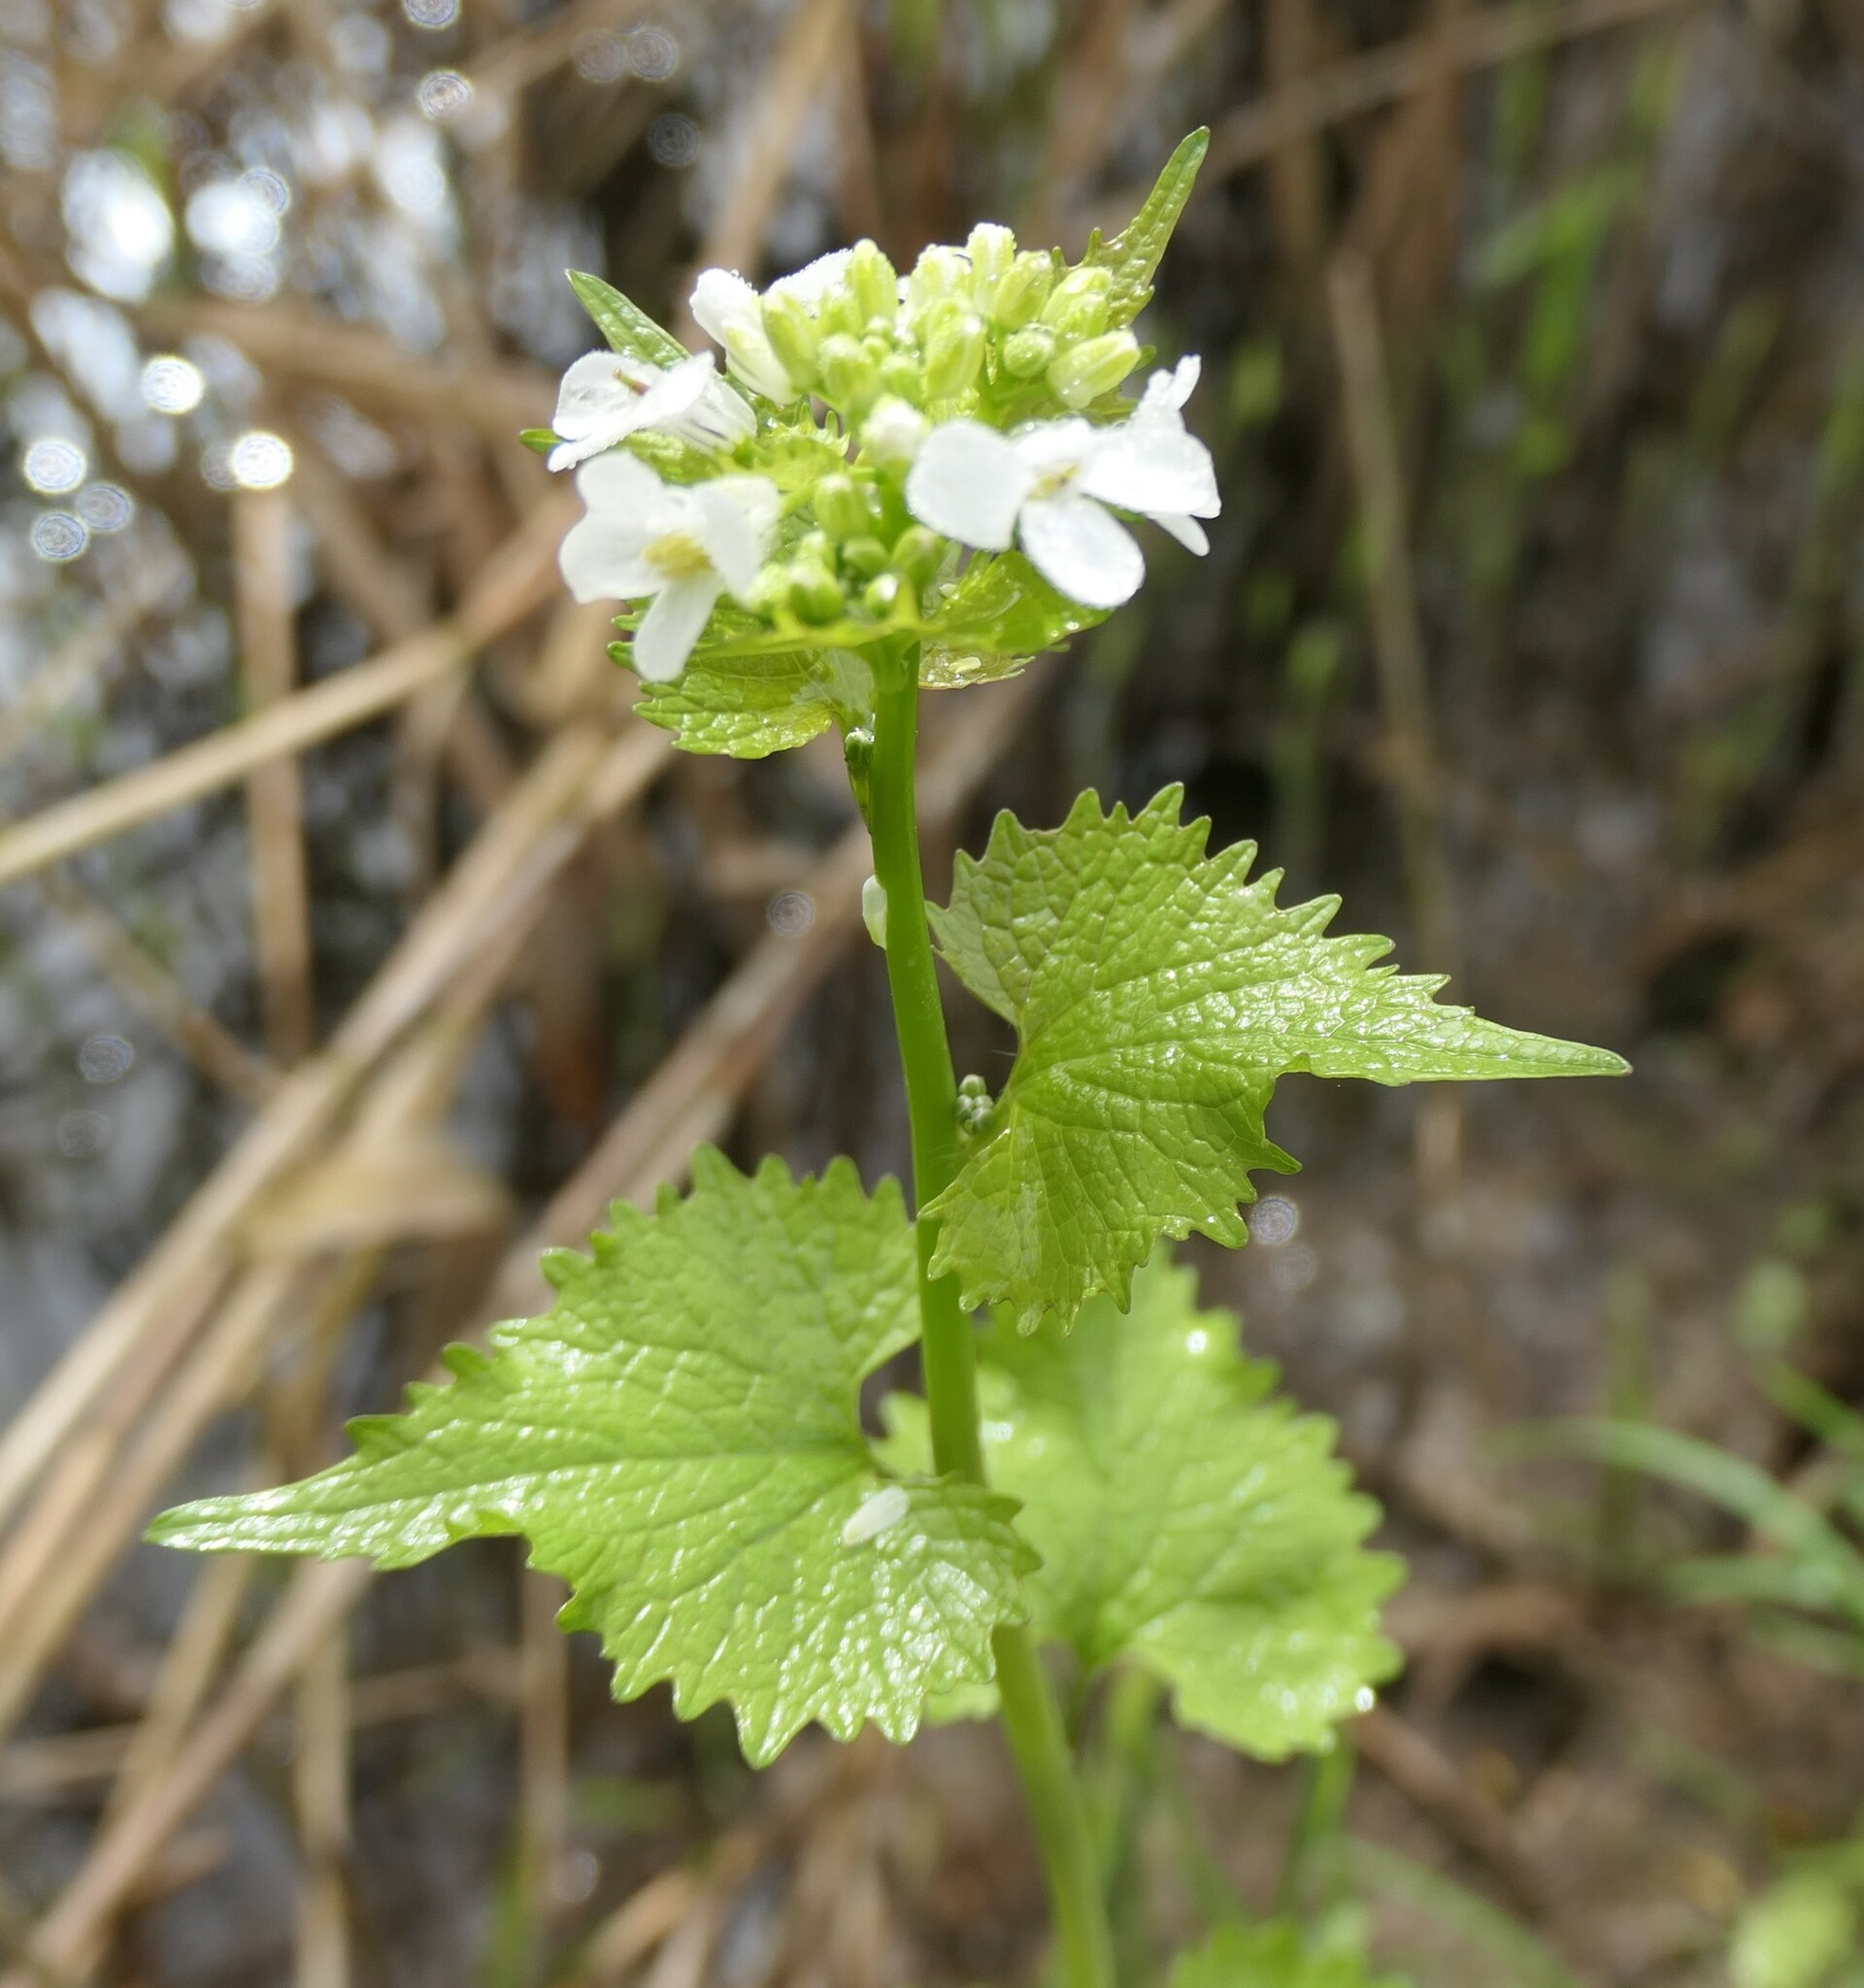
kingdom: Plantae
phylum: Tracheophyta
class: Magnoliopsida
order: Brassicales
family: Brassicaceae
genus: Alliaria
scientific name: Alliaria petiolata
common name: Garlic mustard
